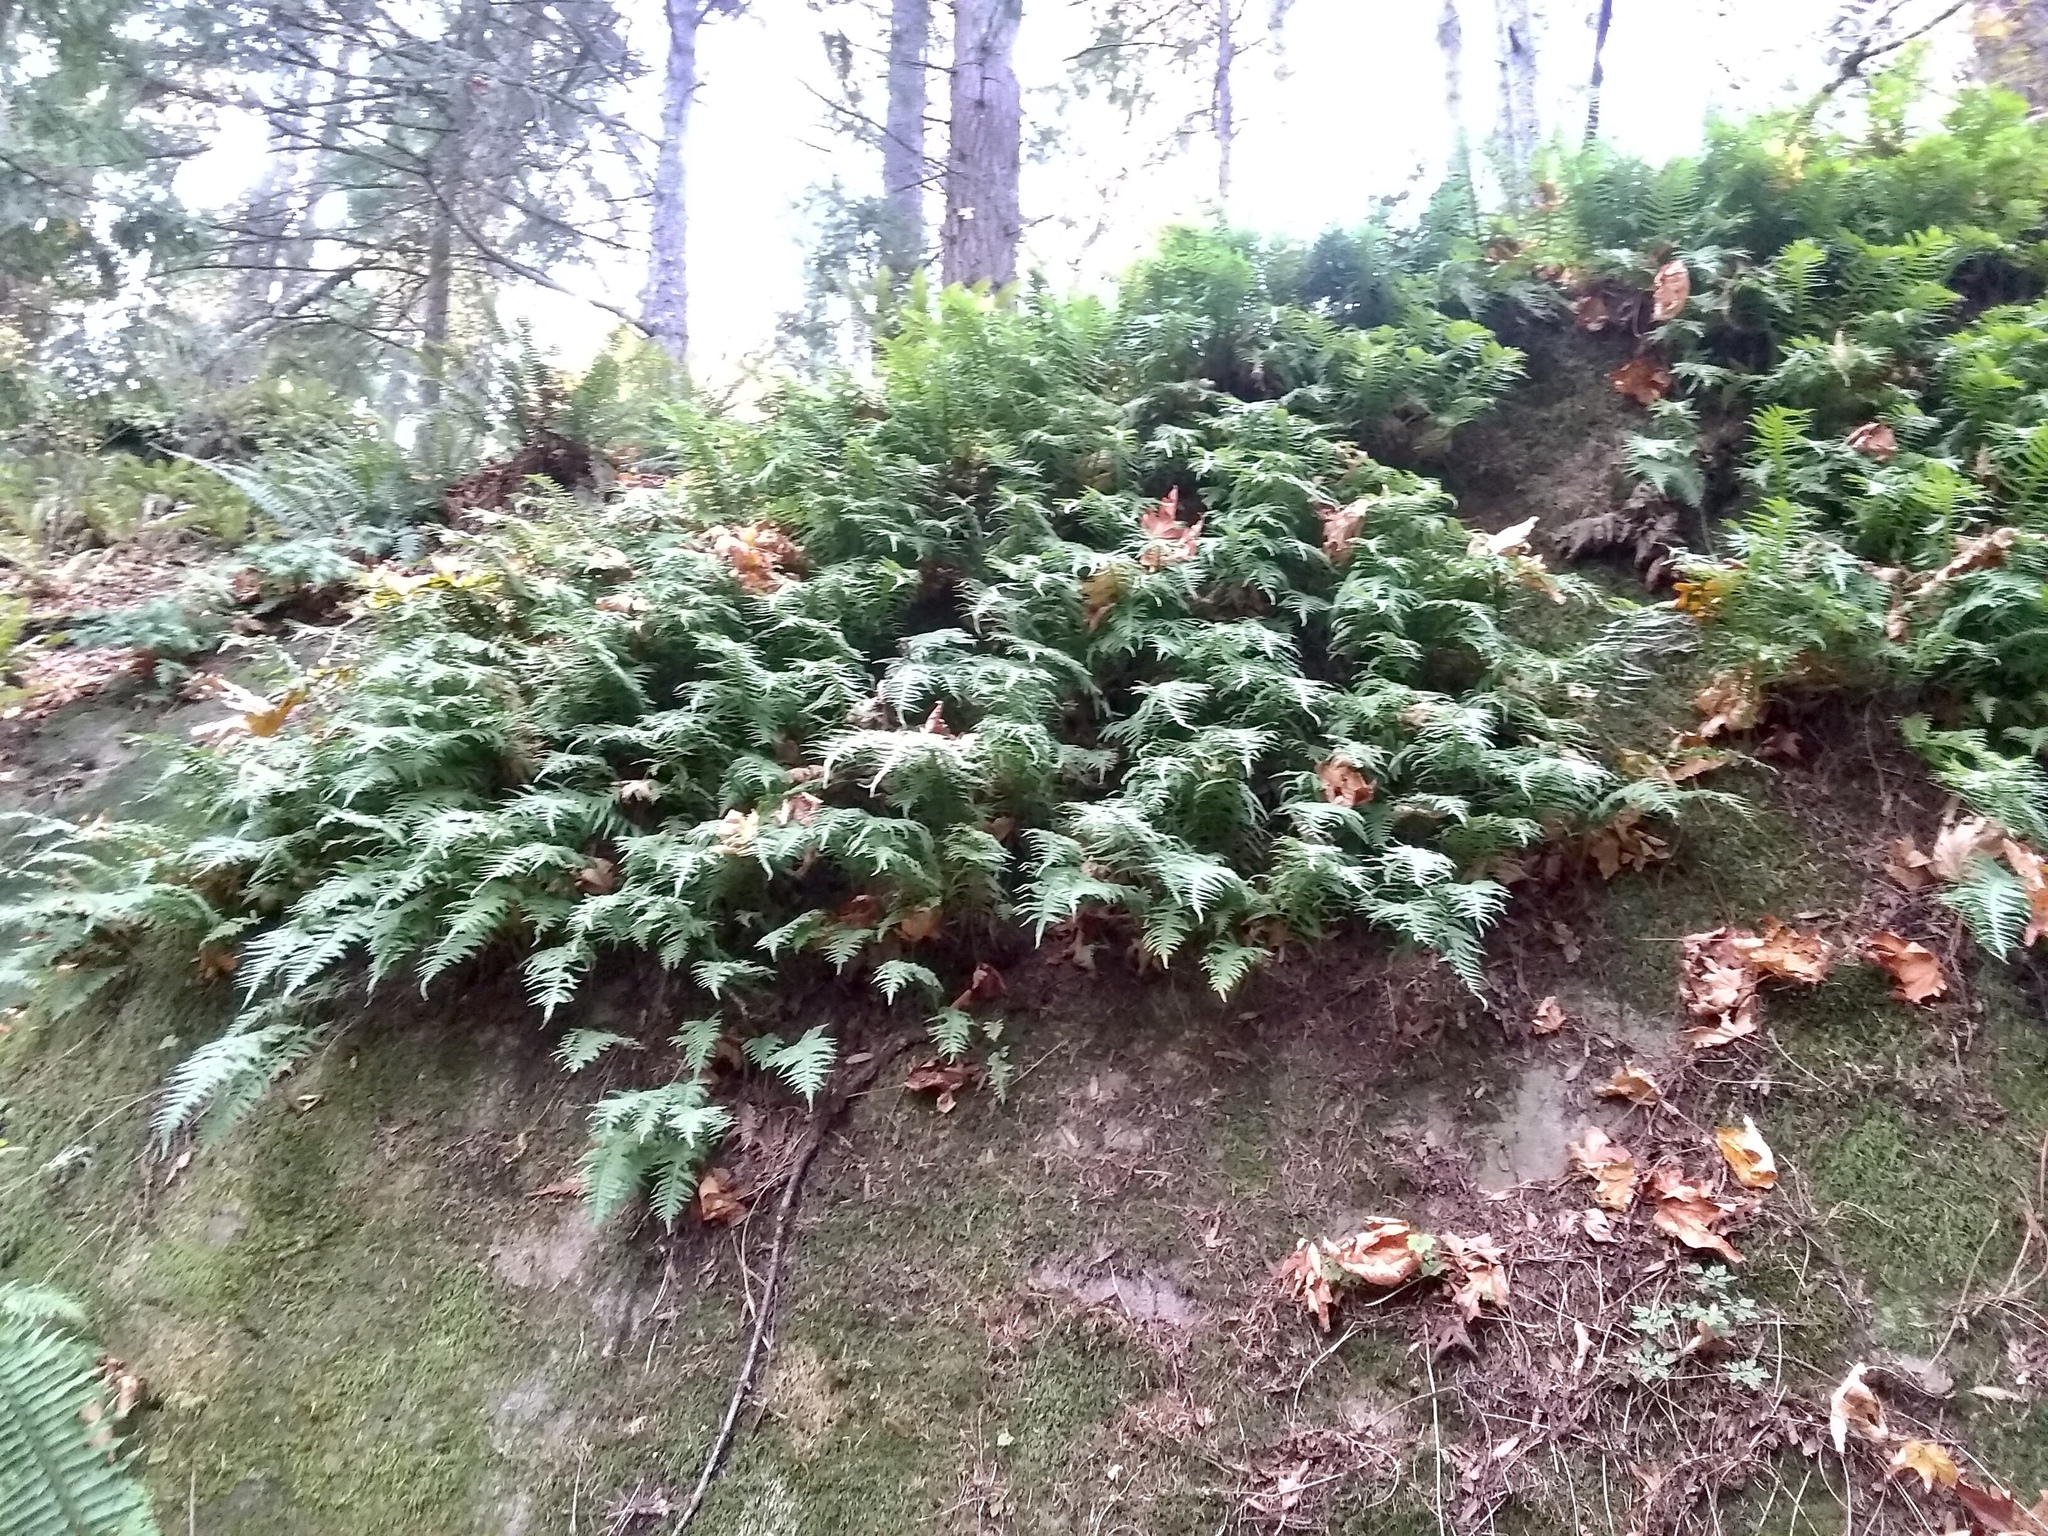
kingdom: Plantae
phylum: Tracheophyta
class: Polypodiopsida
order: Polypodiales
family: Polypodiaceae
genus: Polypodium
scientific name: Polypodium glycyrrhiza
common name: Licorice fern
